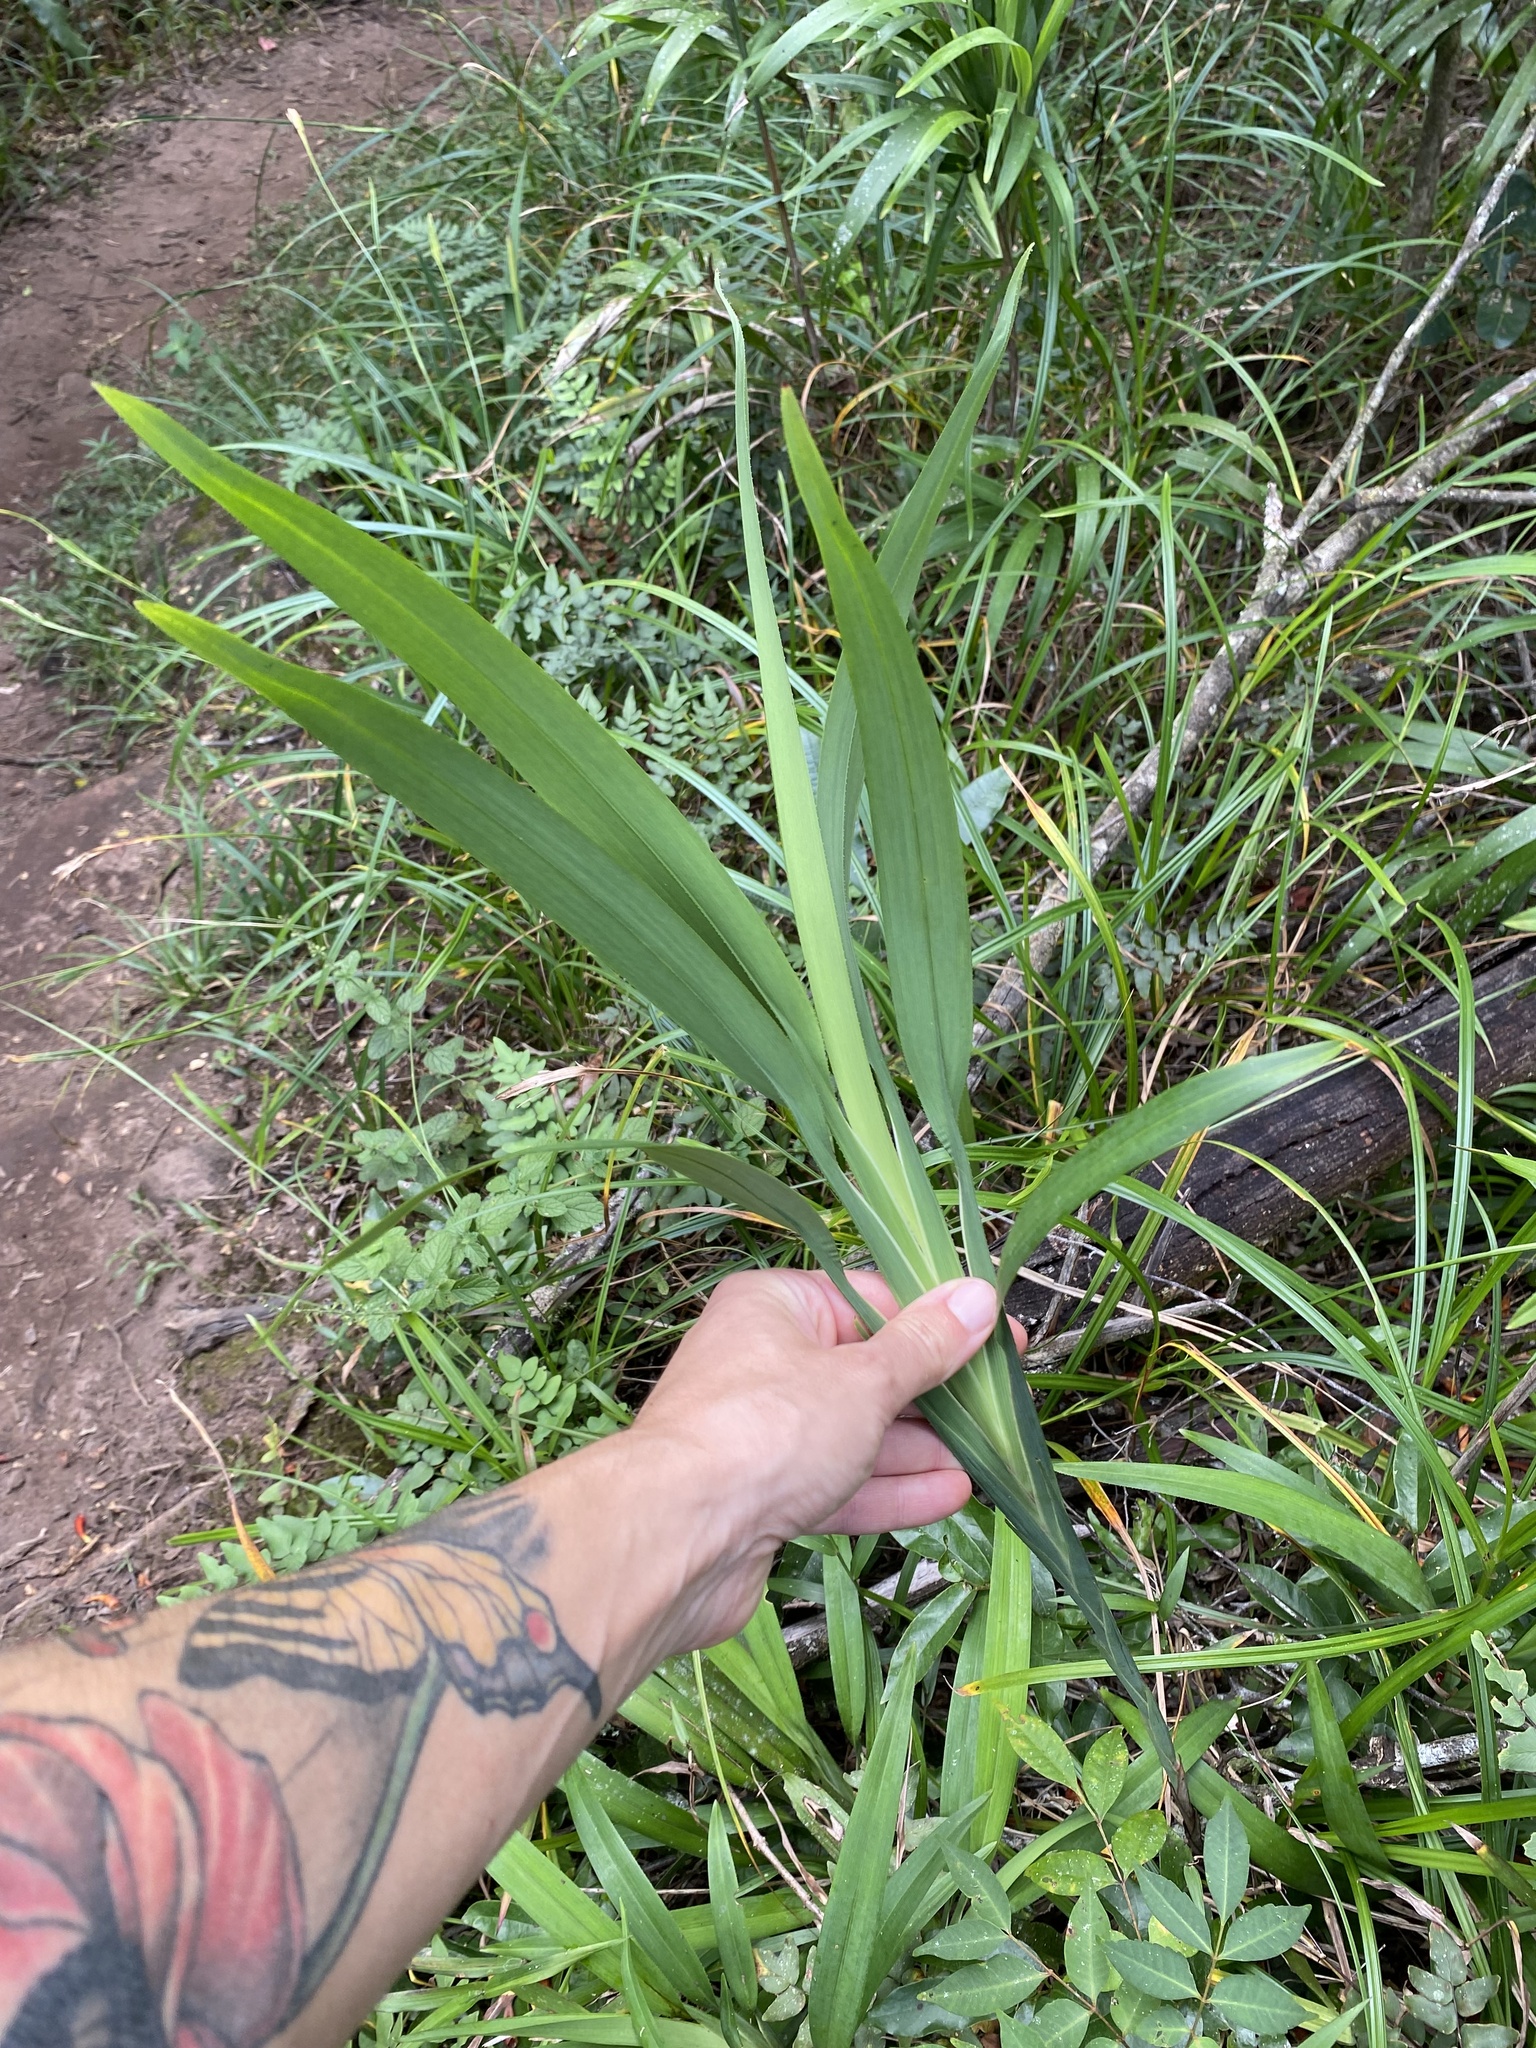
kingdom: Plantae
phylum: Tracheophyta
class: Liliopsida
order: Asparagales
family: Asphodelaceae
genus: Dianella
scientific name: Dianella ensifolia
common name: New zealand lilyplant
